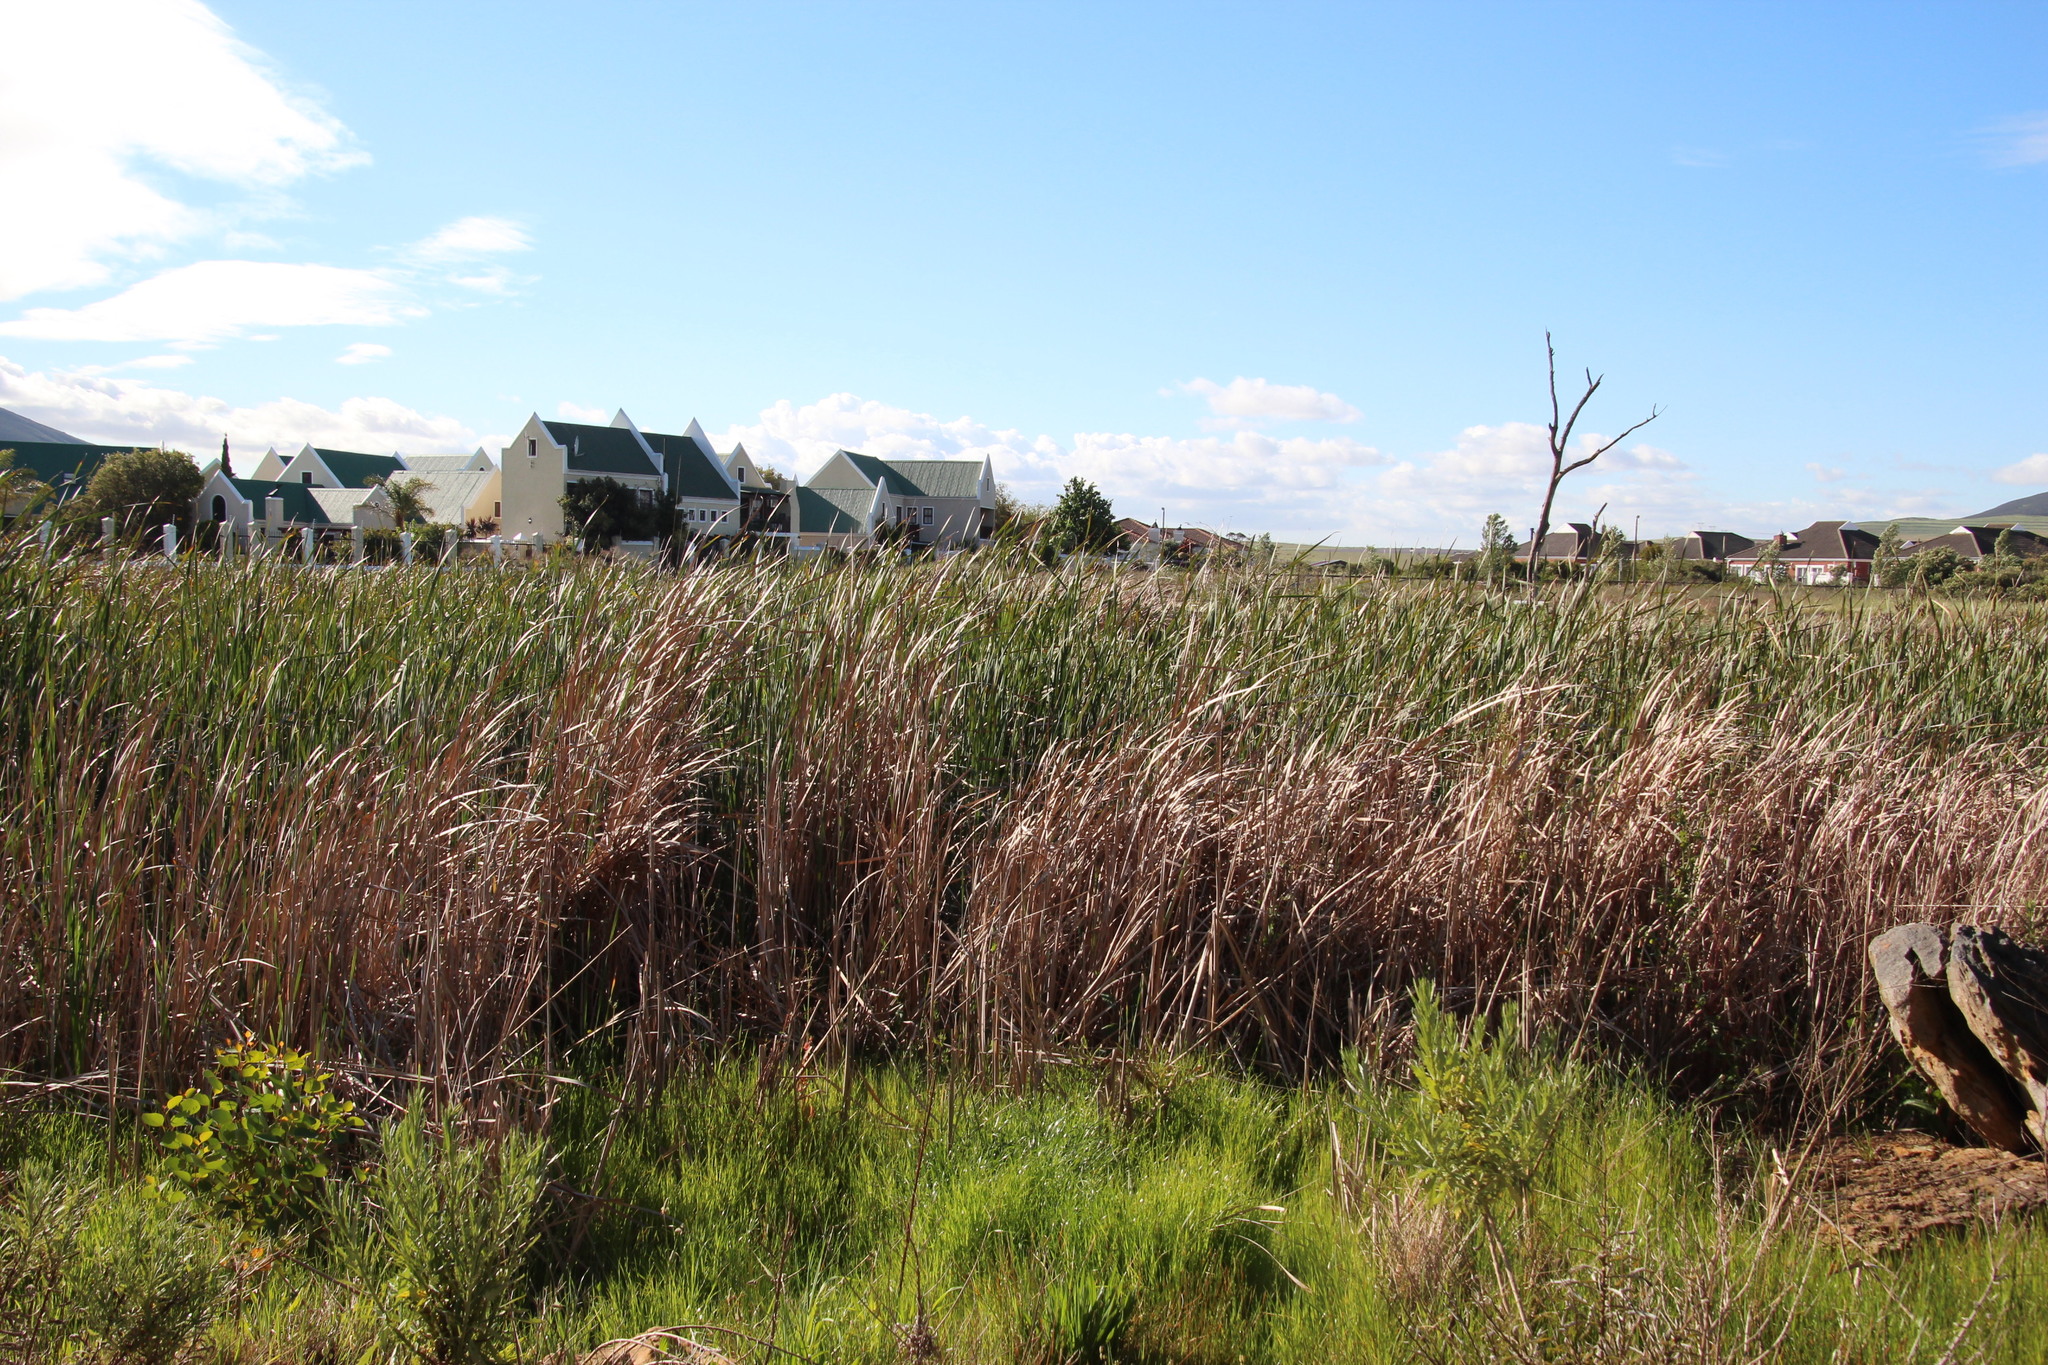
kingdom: Plantae
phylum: Tracheophyta
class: Liliopsida
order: Poales
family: Typhaceae
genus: Typha
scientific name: Typha capensis
